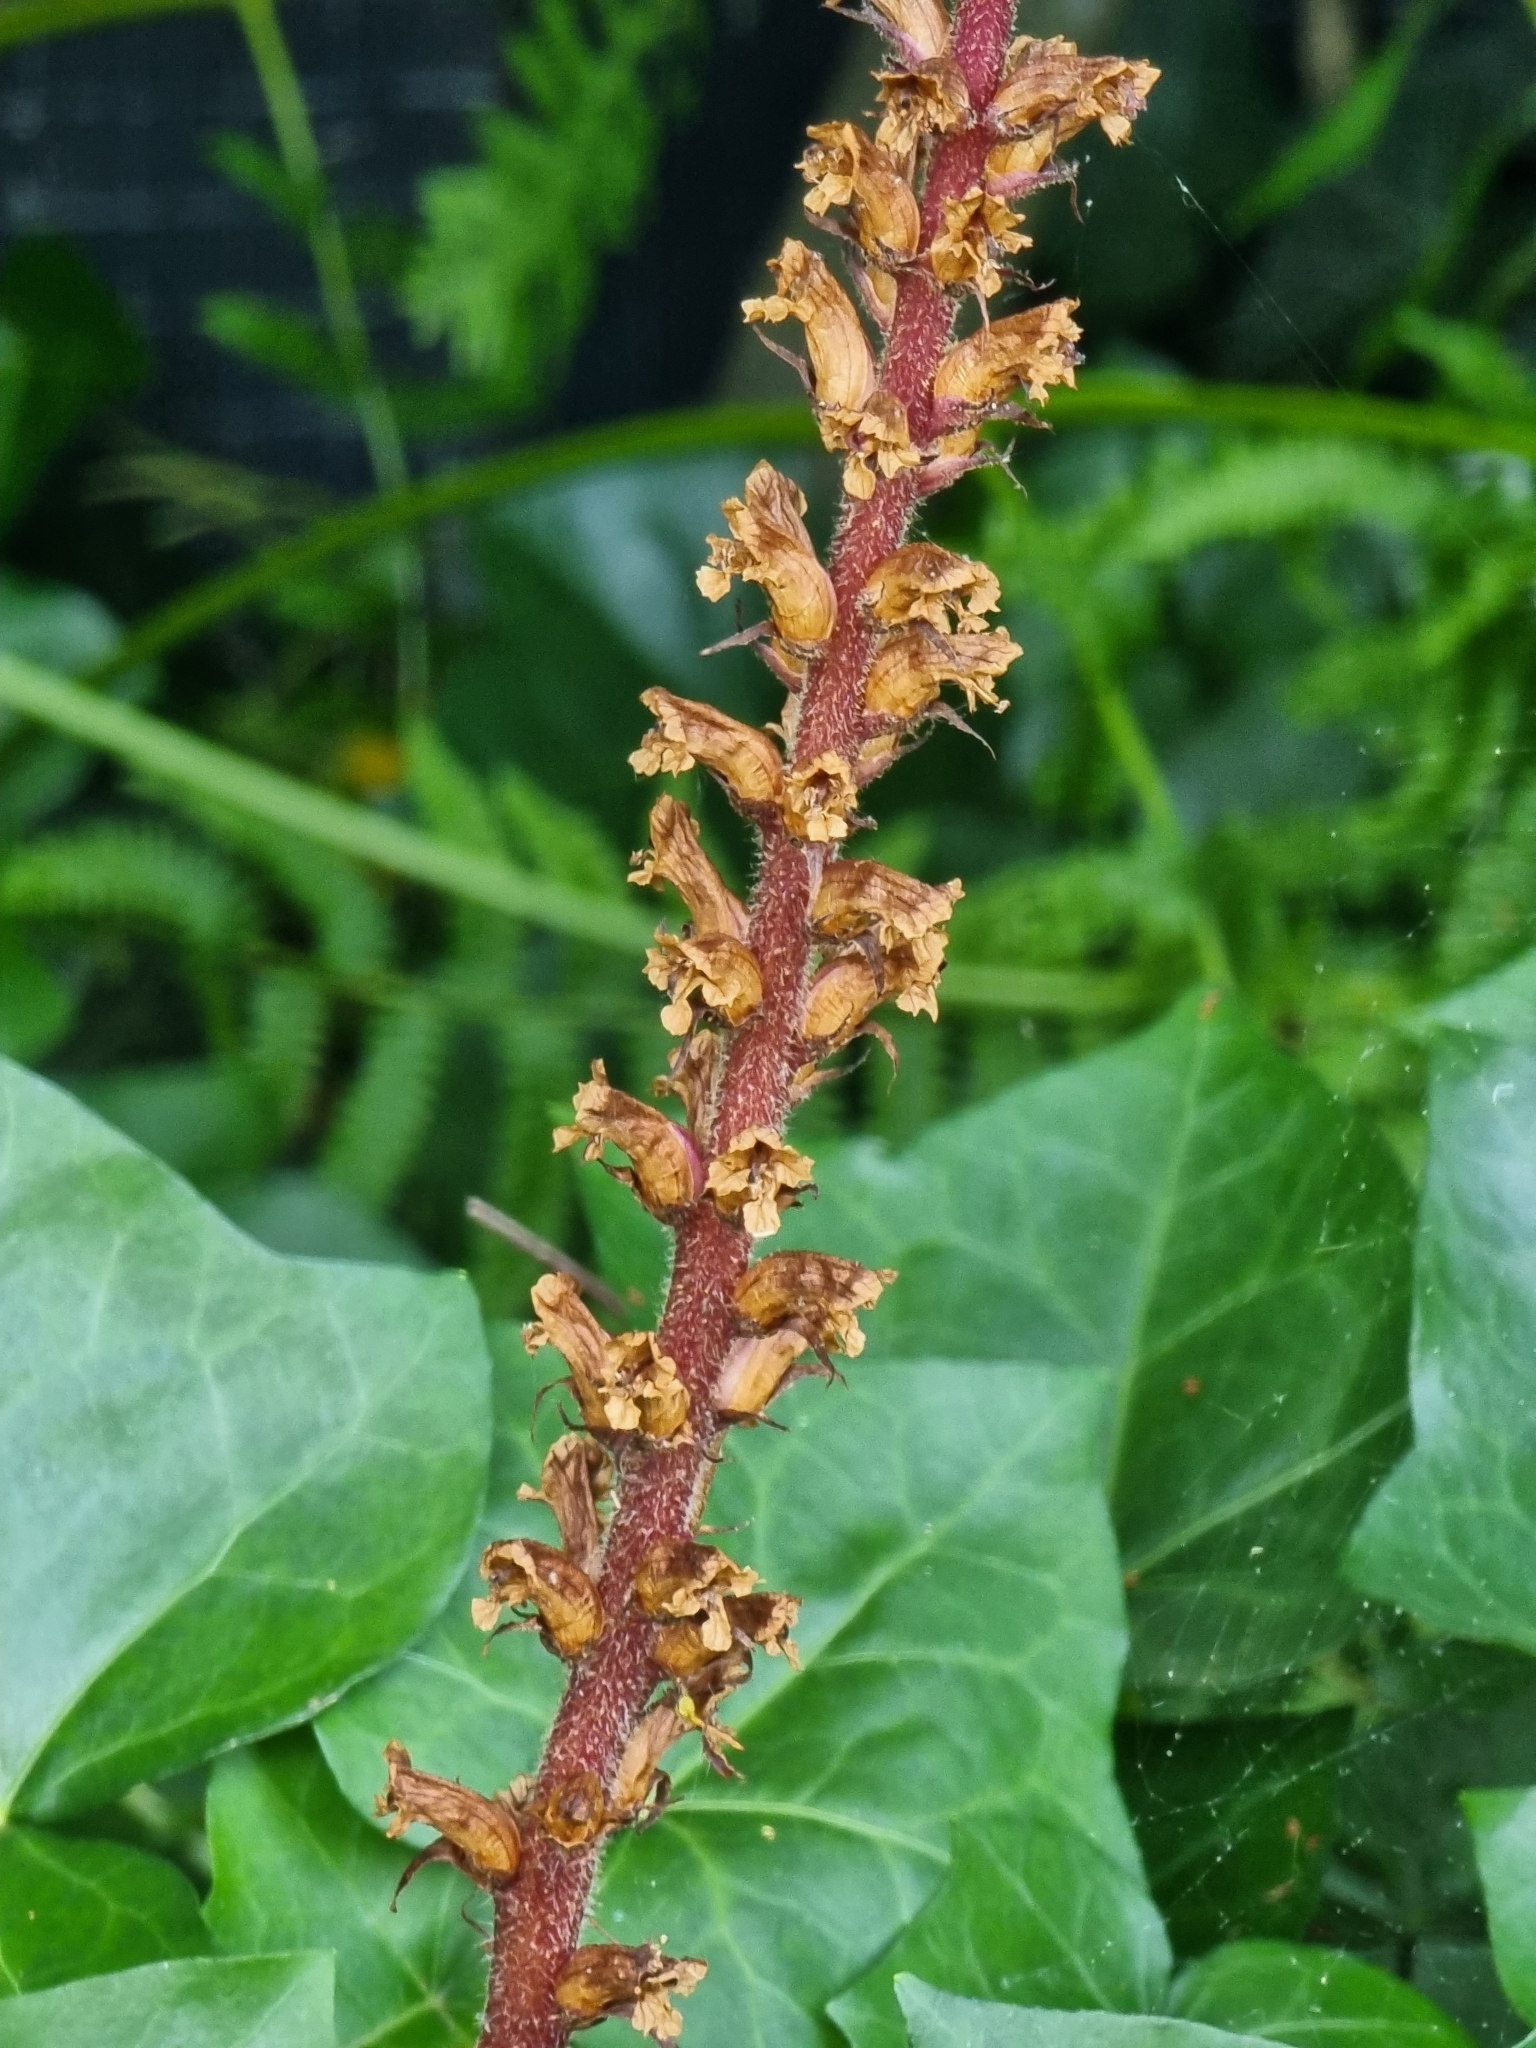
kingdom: Plantae
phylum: Tracheophyta
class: Magnoliopsida
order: Lamiales
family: Orobanchaceae
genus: Orobanche
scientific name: Orobanche hederae
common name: Ivy broomrape
